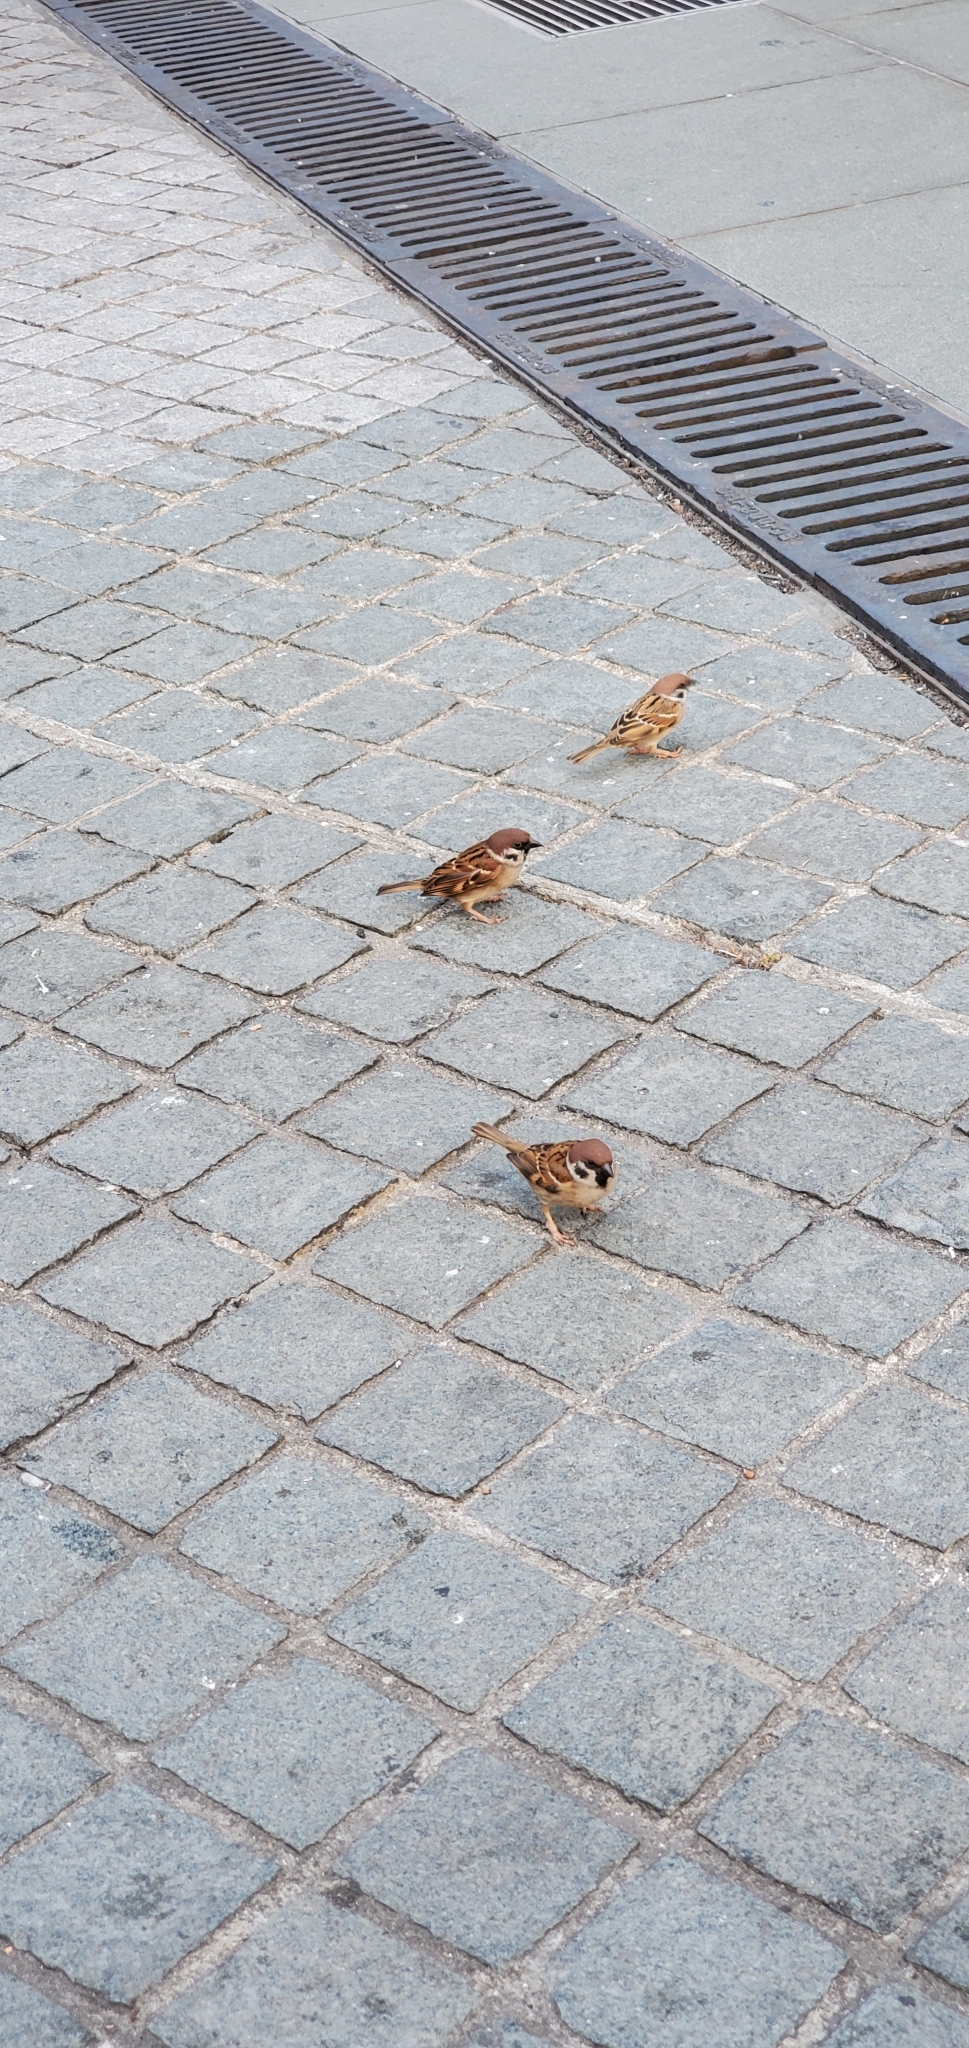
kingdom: Animalia
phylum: Chordata
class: Aves
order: Passeriformes
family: Passeridae
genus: Passer
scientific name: Passer montanus
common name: Eurasian tree sparrow
